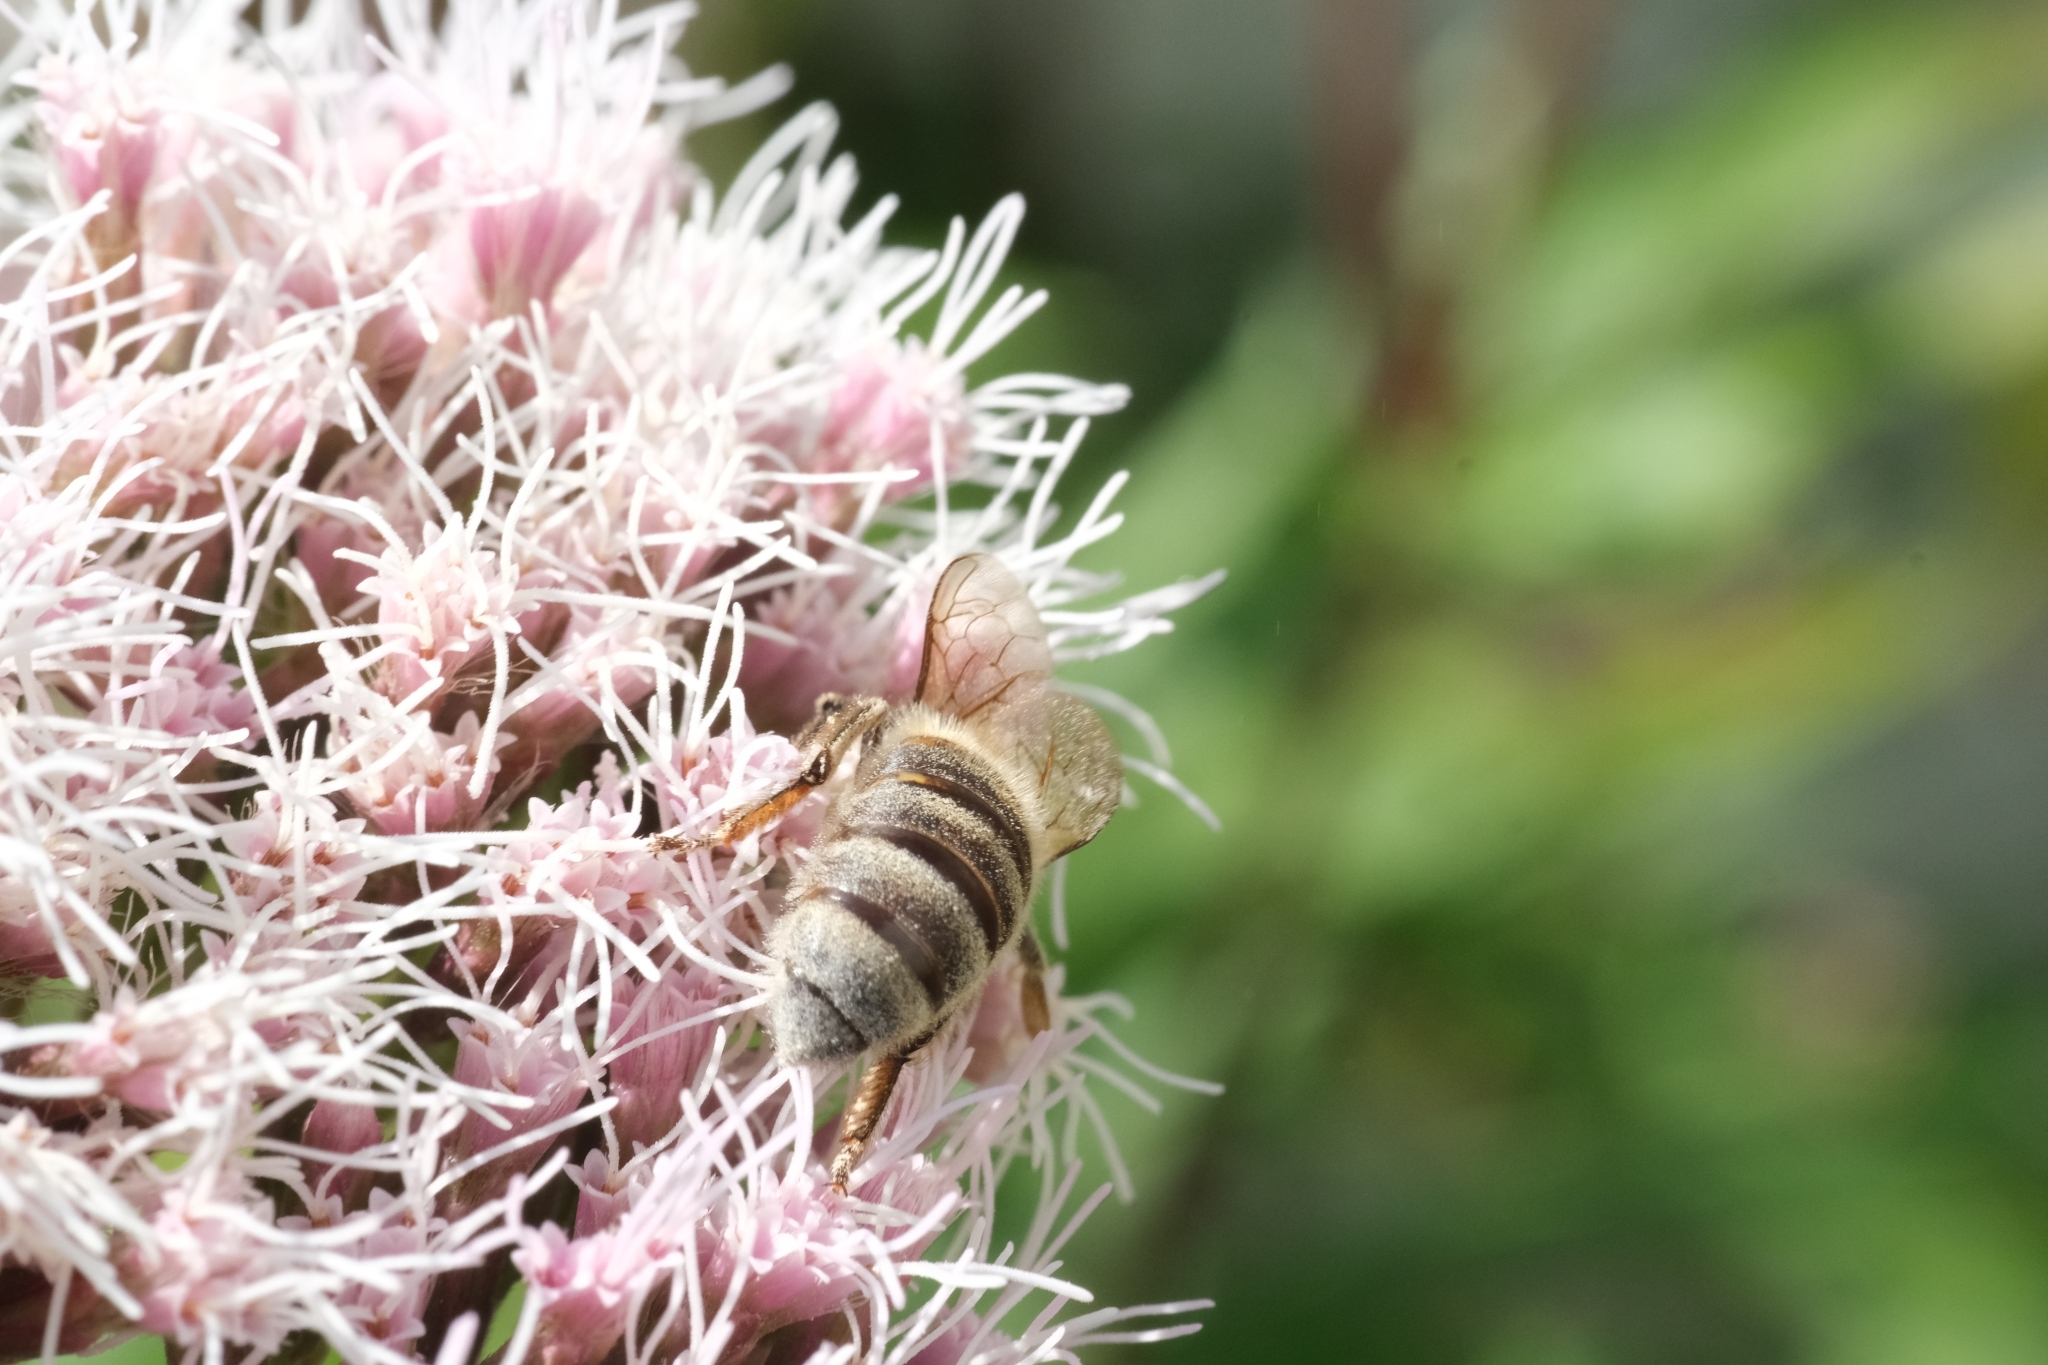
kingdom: Animalia
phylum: Arthropoda
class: Insecta
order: Hymenoptera
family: Apidae
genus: Apis
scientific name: Apis mellifera
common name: Honey bee
